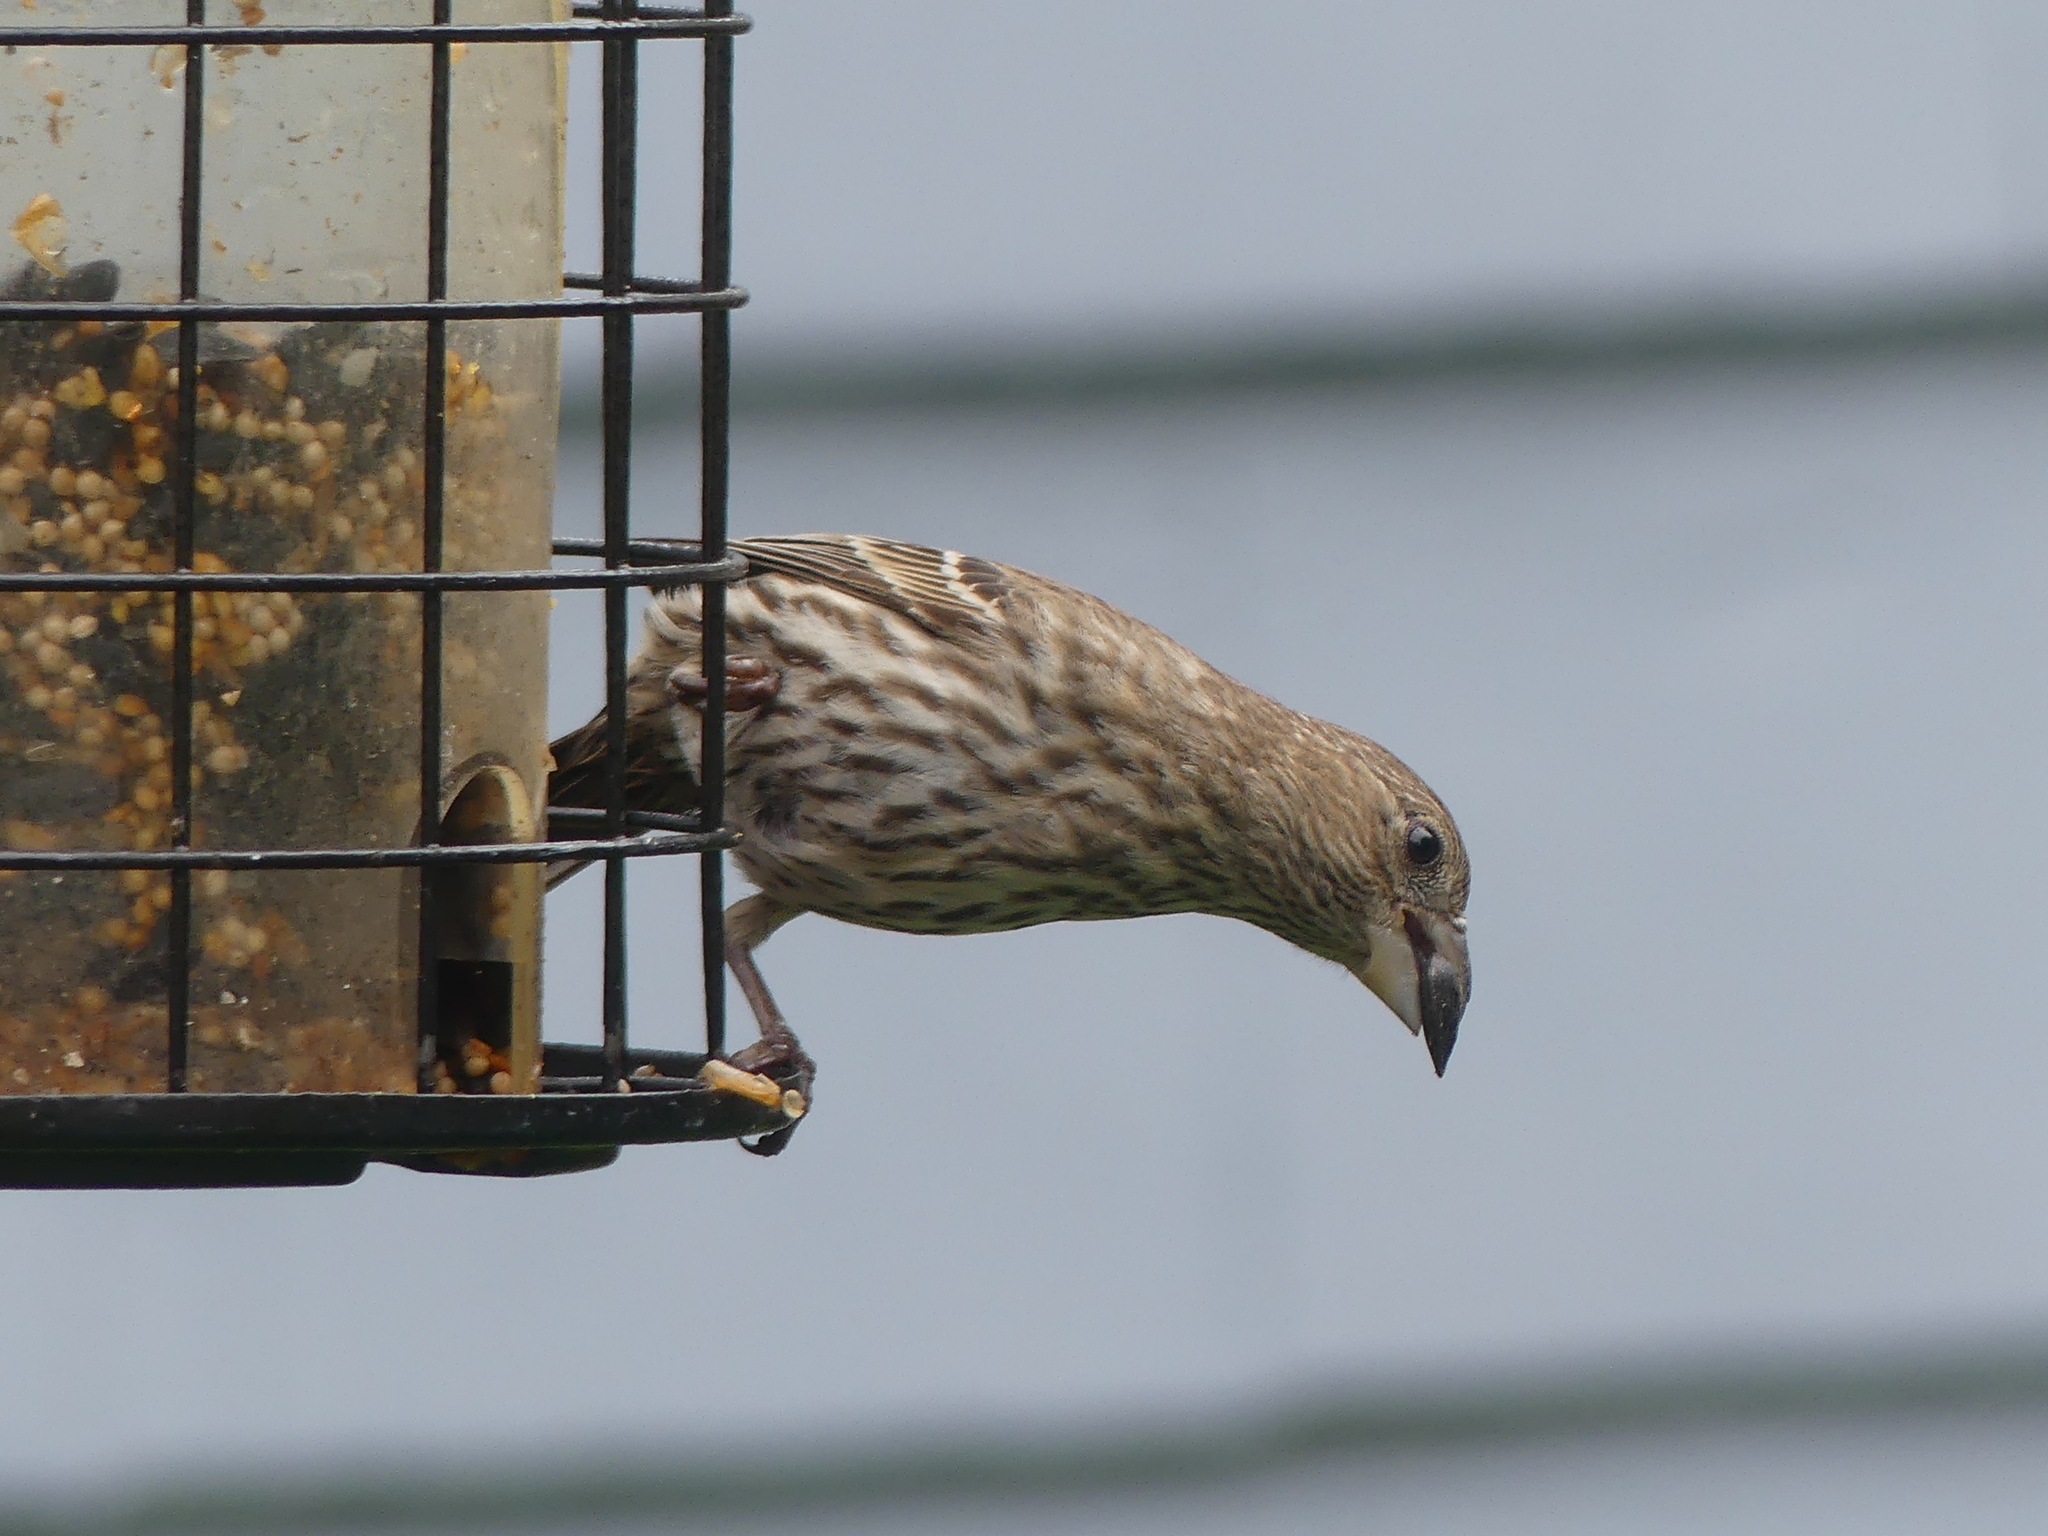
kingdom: Animalia
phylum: Chordata
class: Aves
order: Passeriformes
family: Fringillidae
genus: Haemorhous
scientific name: Haemorhous mexicanus
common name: House finch
